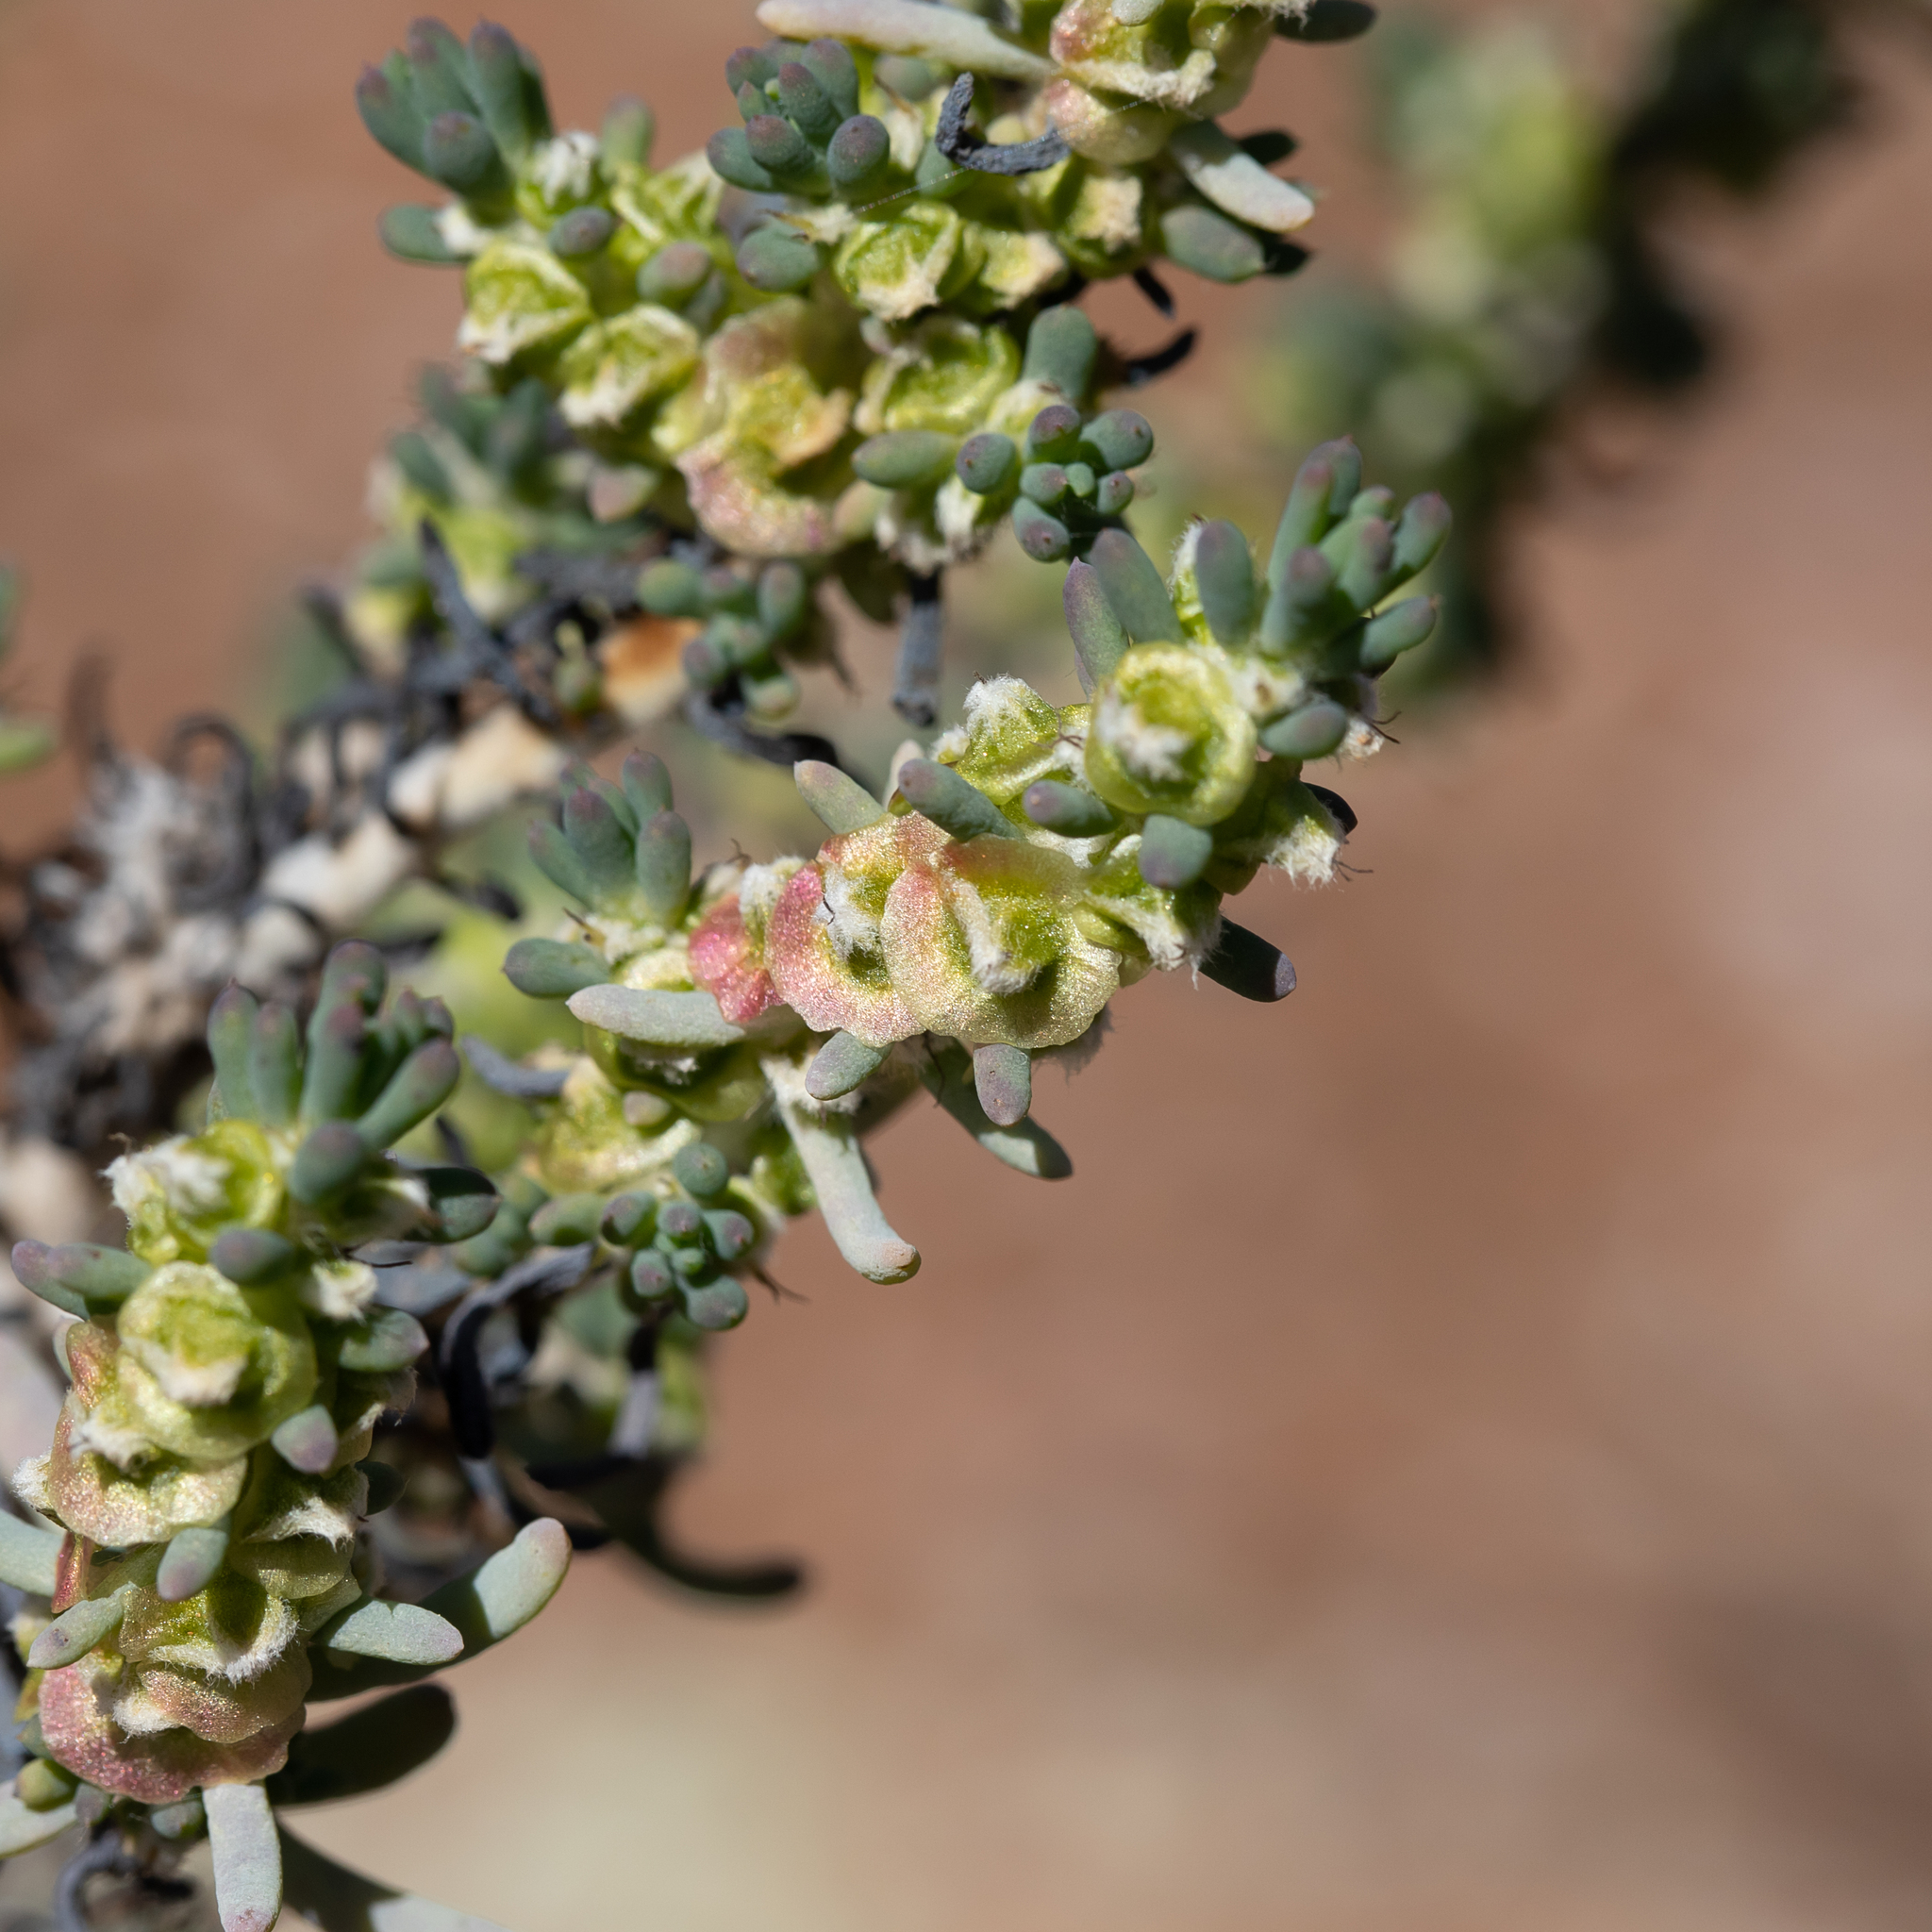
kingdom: Plantae
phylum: Tracheophyta
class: Magnoliopsida
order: Caryophyllales
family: Amaranthaceae
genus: Maireana
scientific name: Maireana pentatropis
